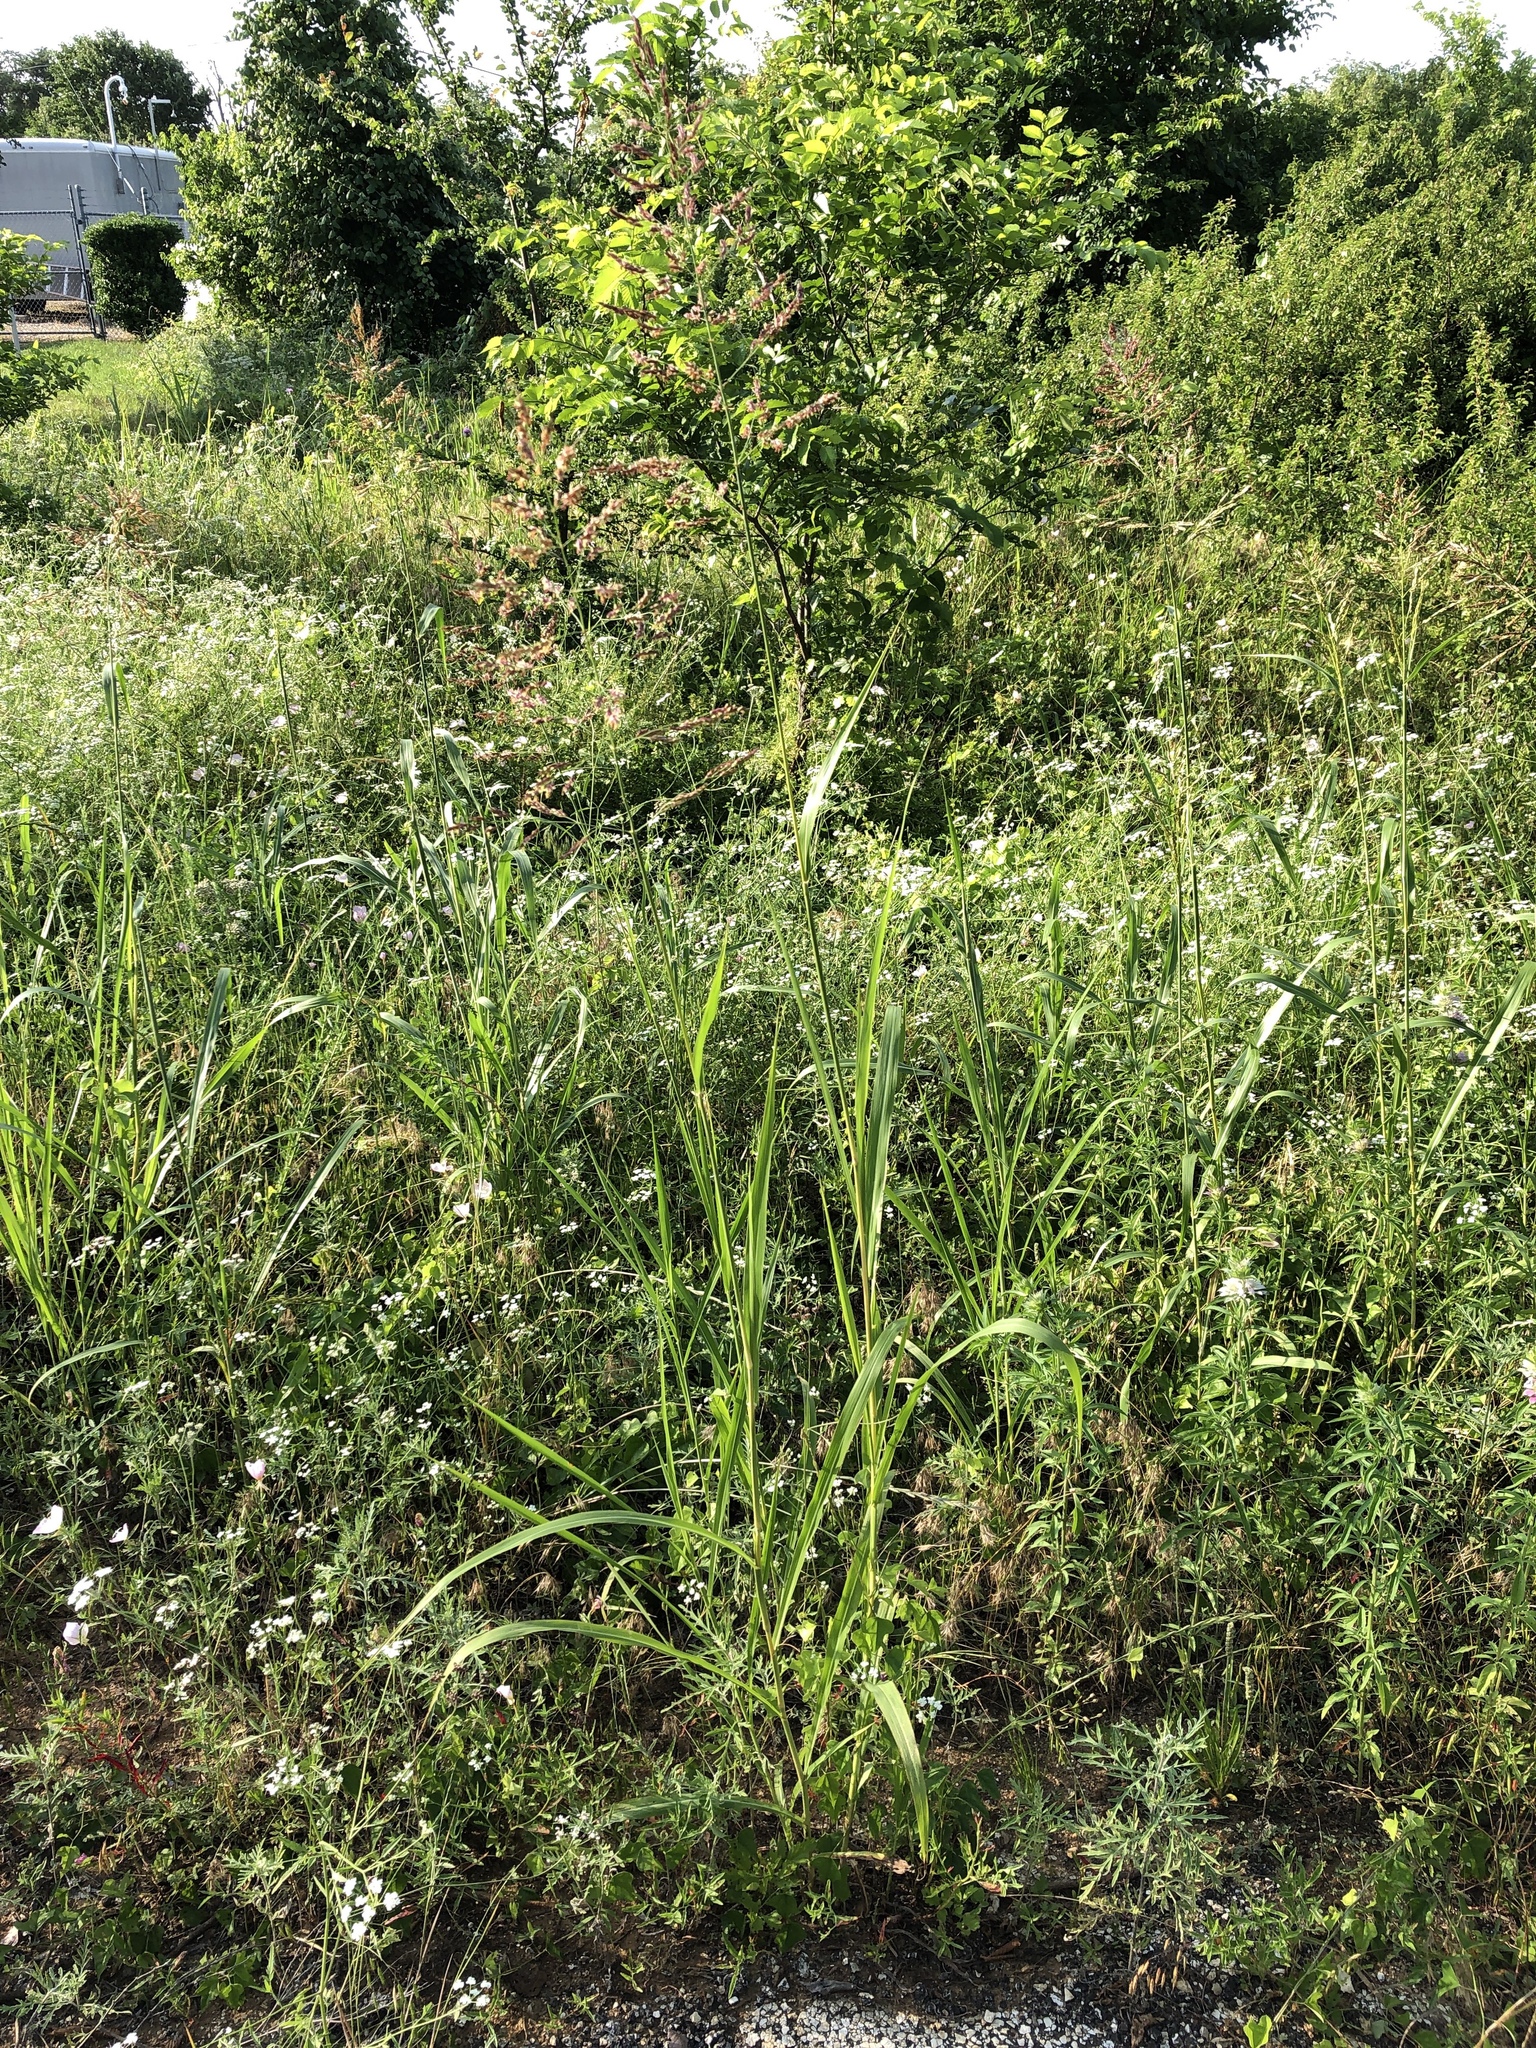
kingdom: Plantae
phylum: Tracheophyta
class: Liliopsida
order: Poales
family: Poaceae
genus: Sorghum
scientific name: Sorghum halepense
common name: Johnson-grass
